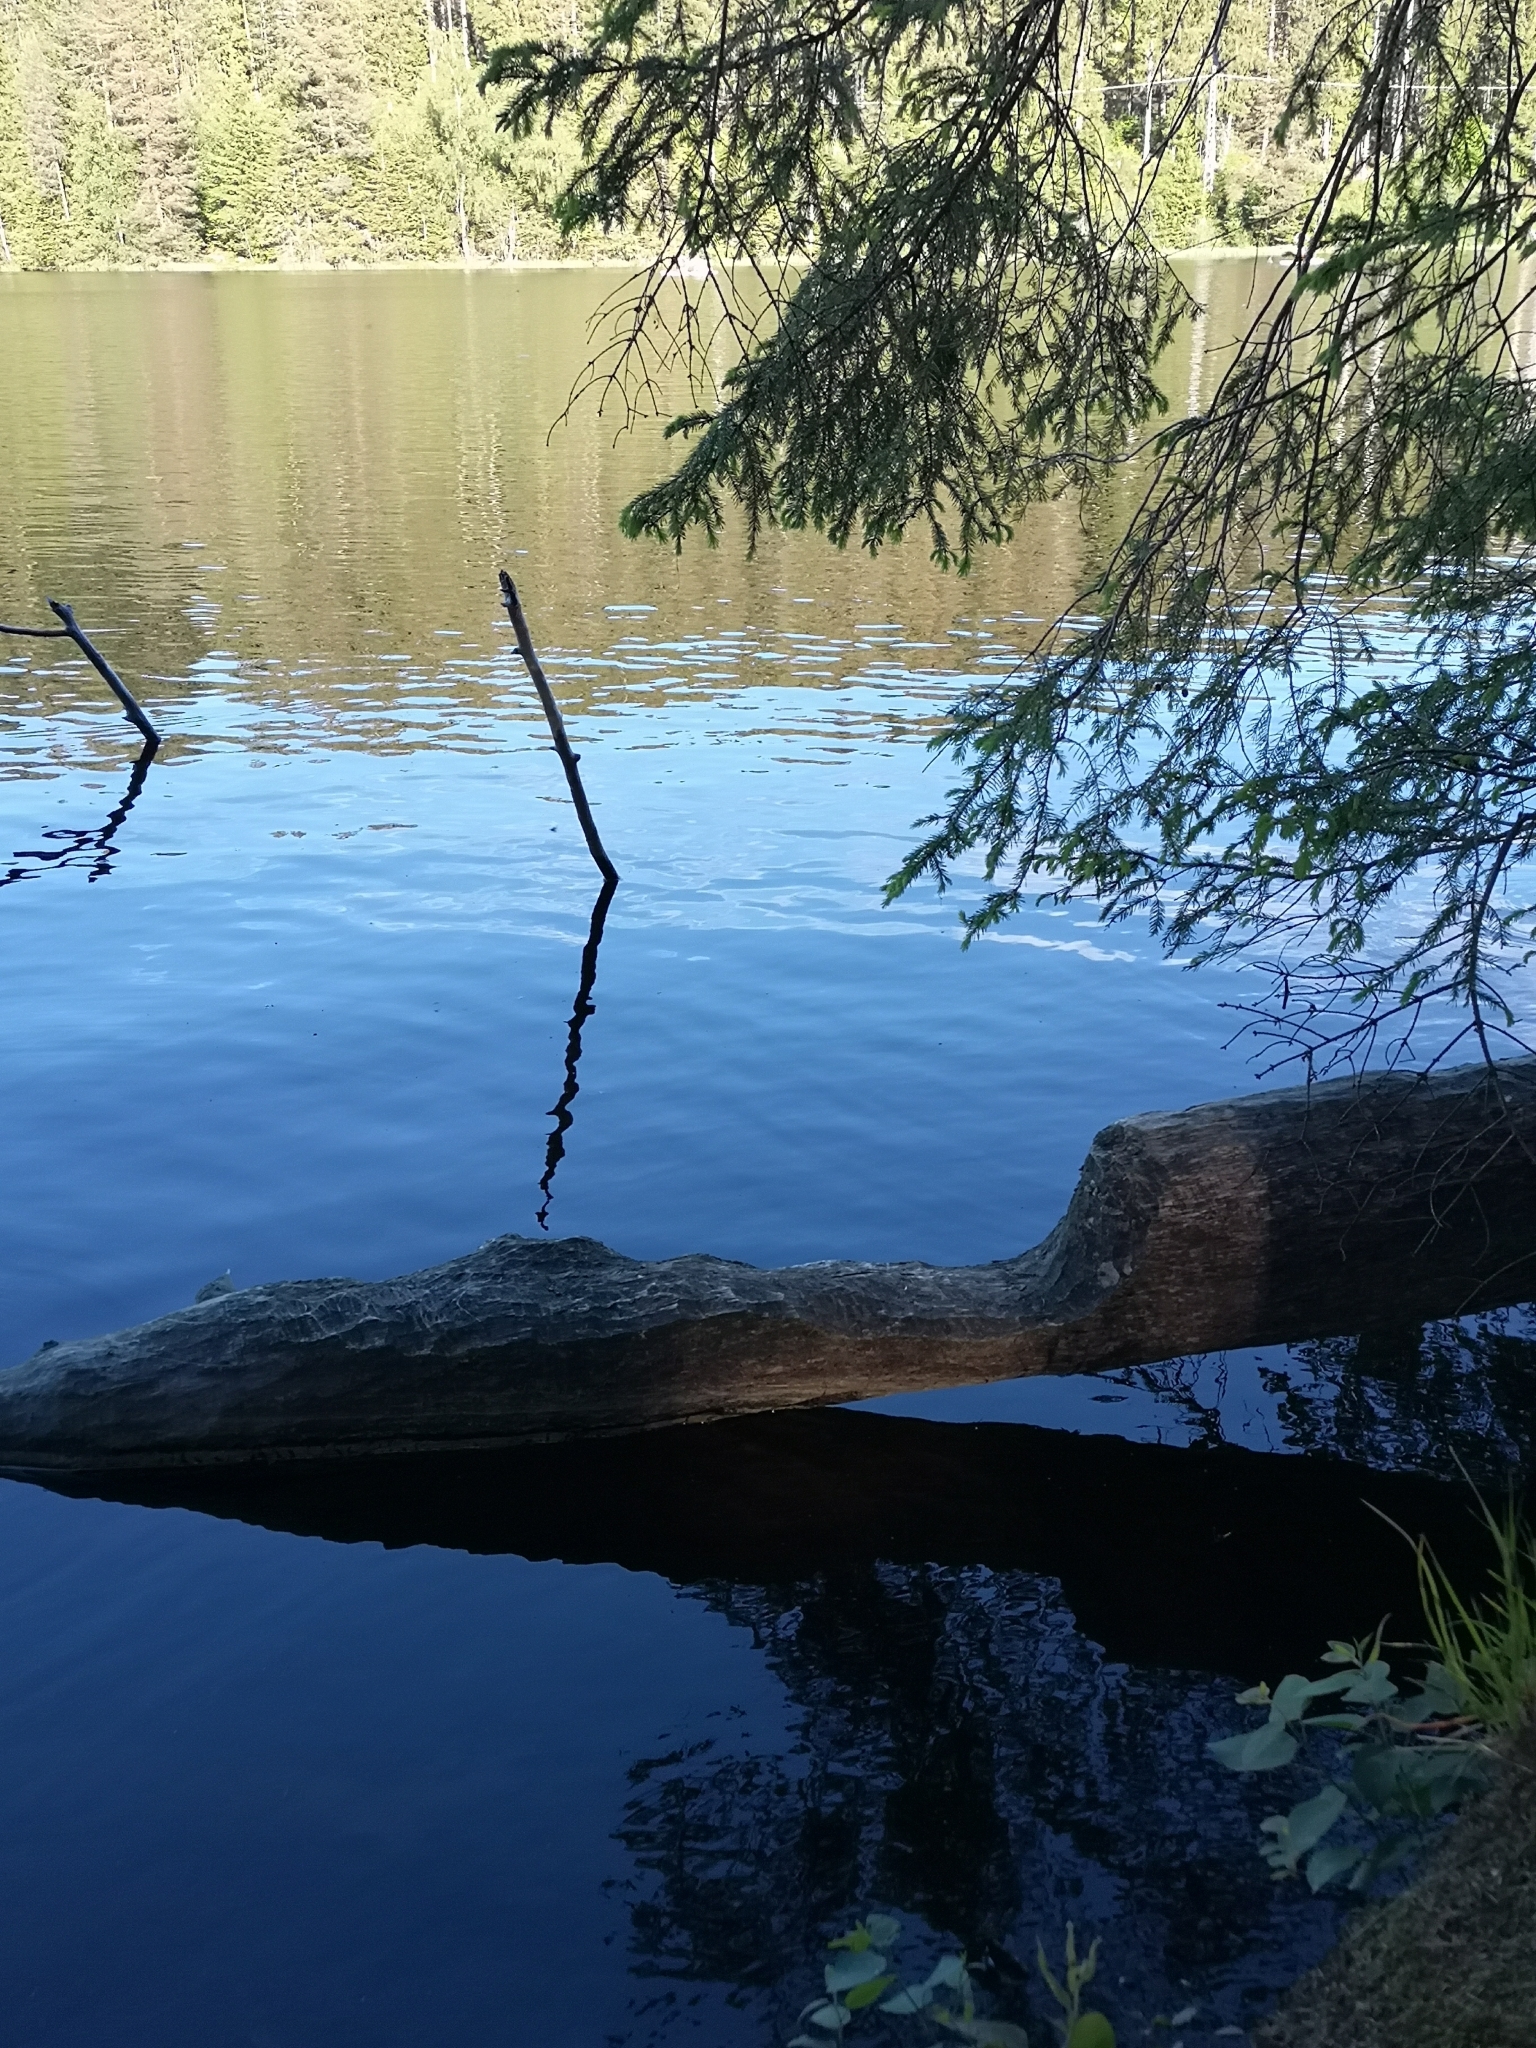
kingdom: Animalia
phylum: Chordata
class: Mammalia
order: Rodentia
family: Castoridae
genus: Castor
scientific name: Castor fiber
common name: Eurasian beaver
